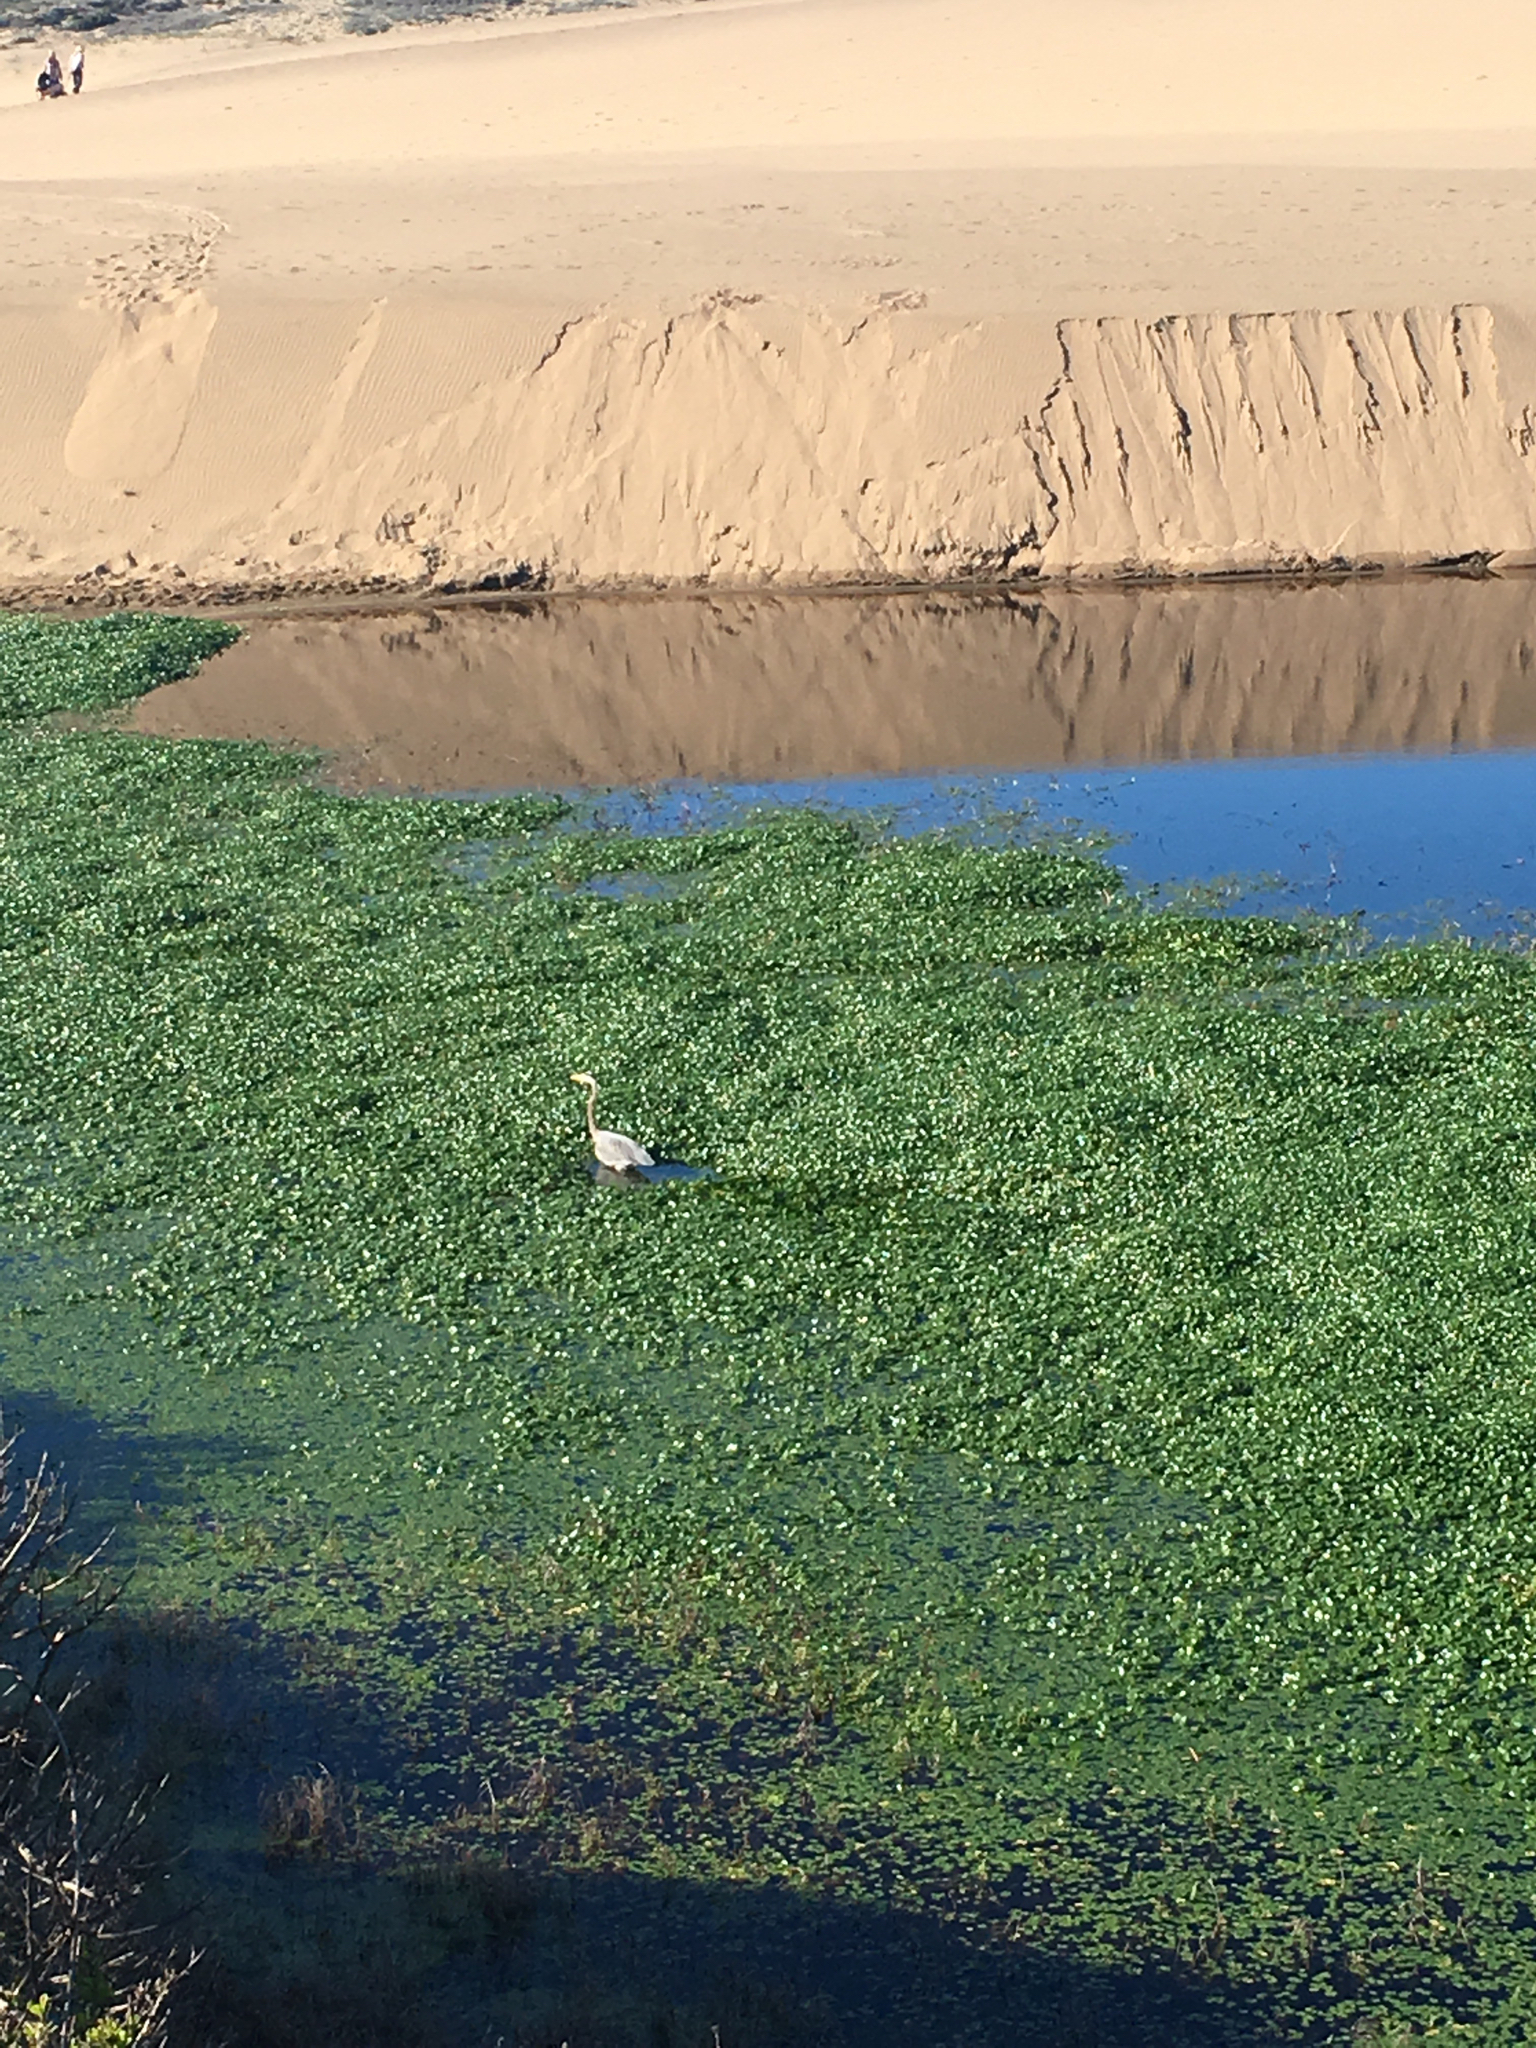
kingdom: Animalia
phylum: Chordata
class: Aves
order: Pelecaniformes
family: Ardeidae
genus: Ardea
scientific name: Ardea herodias
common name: Great blue heron
